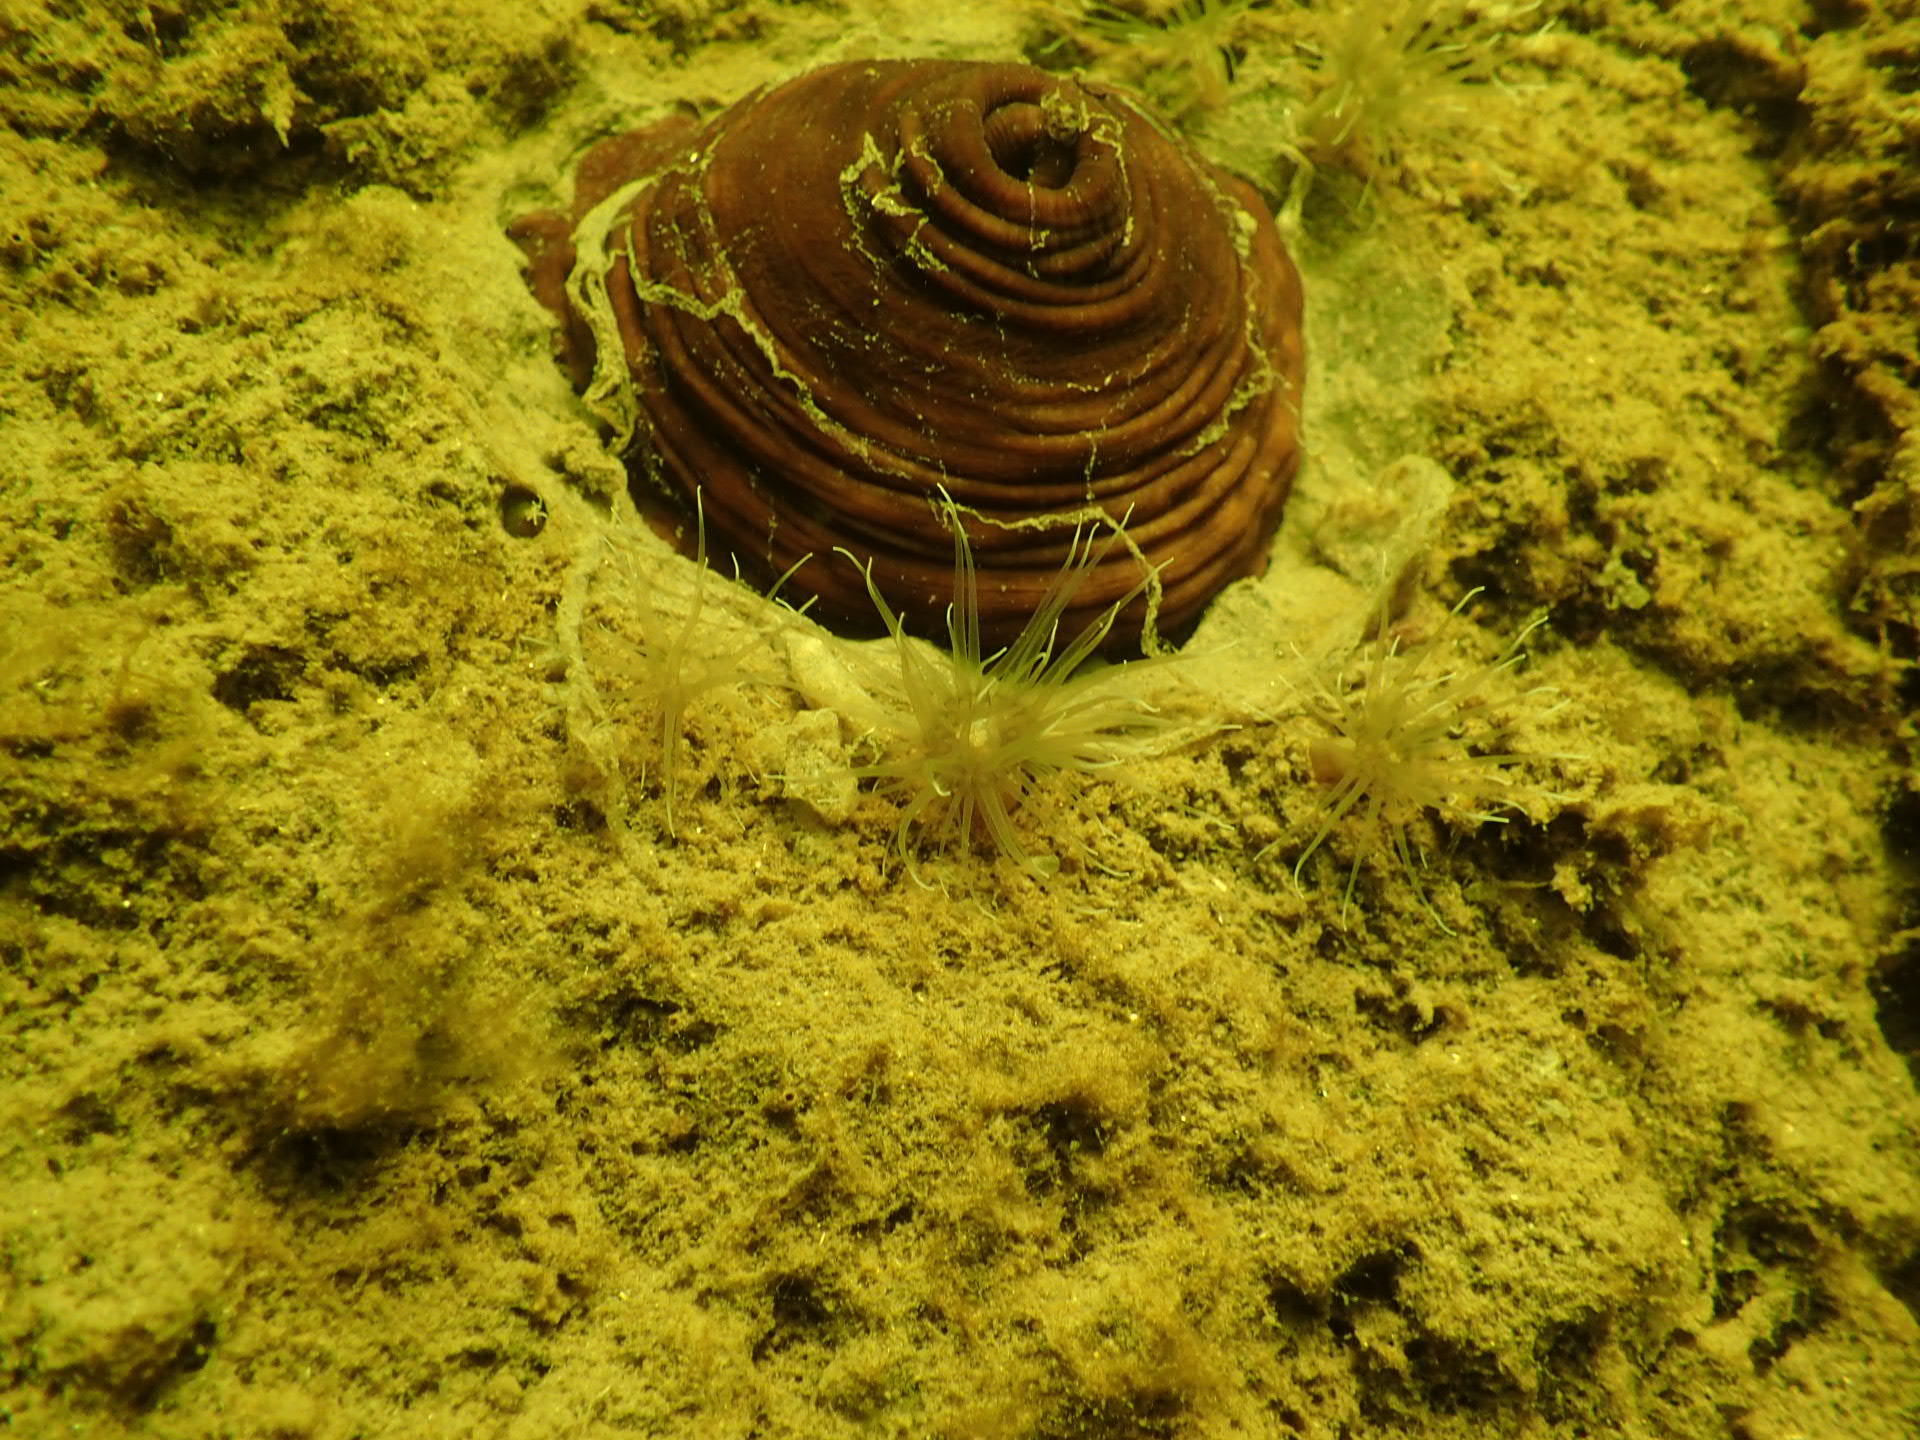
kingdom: Animalia
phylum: Cnidaria
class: Anthozoa
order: Actiniaria
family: Metridiidae
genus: Metridium
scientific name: Metridium senile
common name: Clonal plumose anemone
